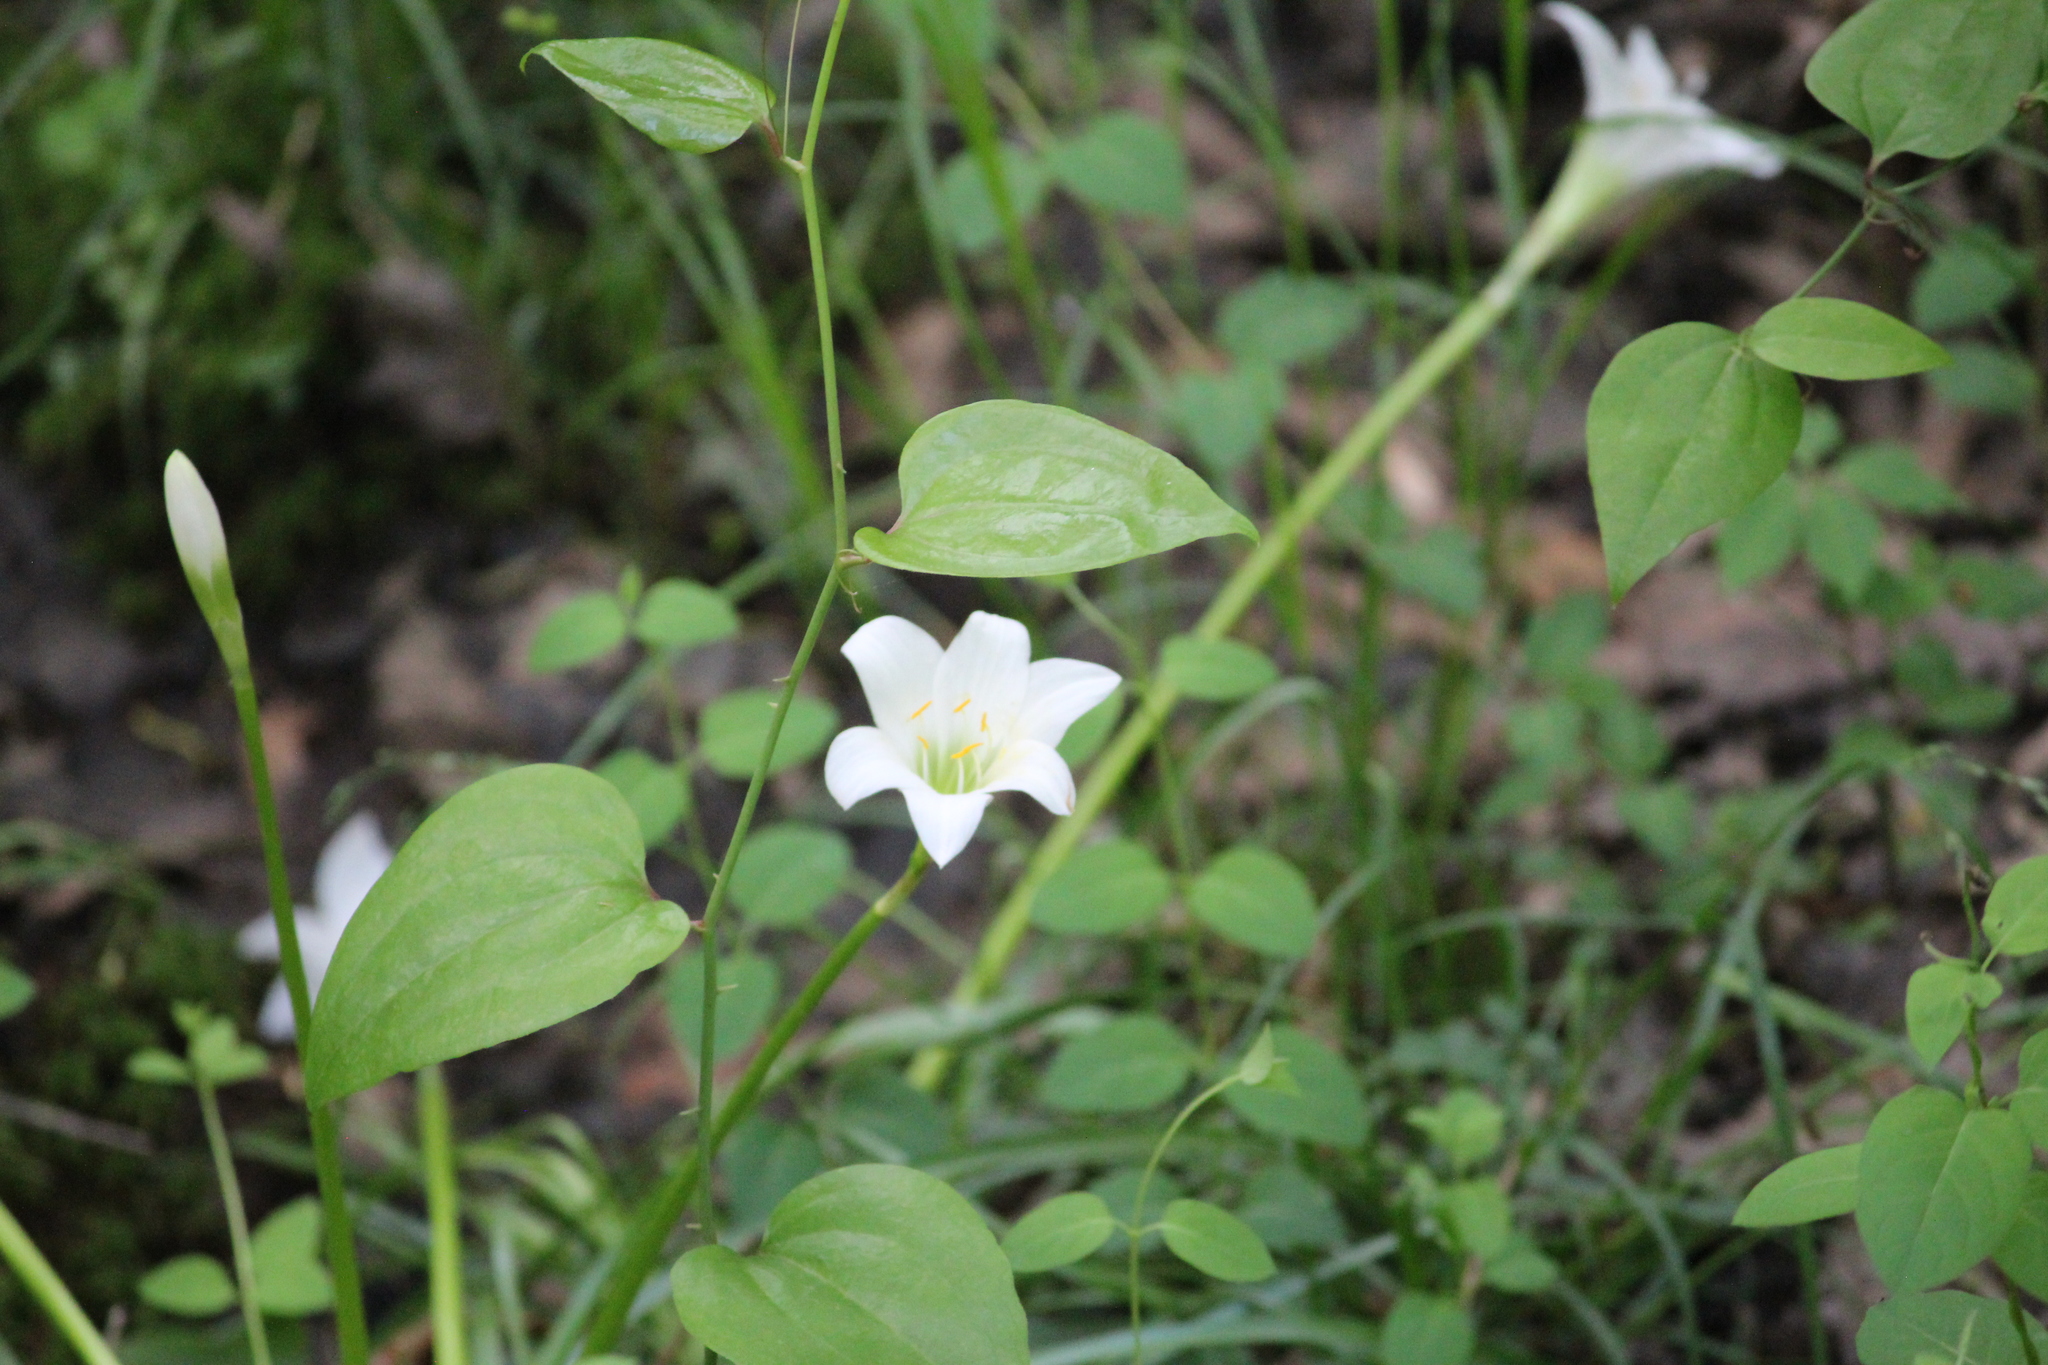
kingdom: Plantae
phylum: Tracheophyta
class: Liliopsida
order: Asparagales
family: Amaryllidaceae
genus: Zephyranthes
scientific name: Zephyranthes atamasco
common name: Atamasco lily
